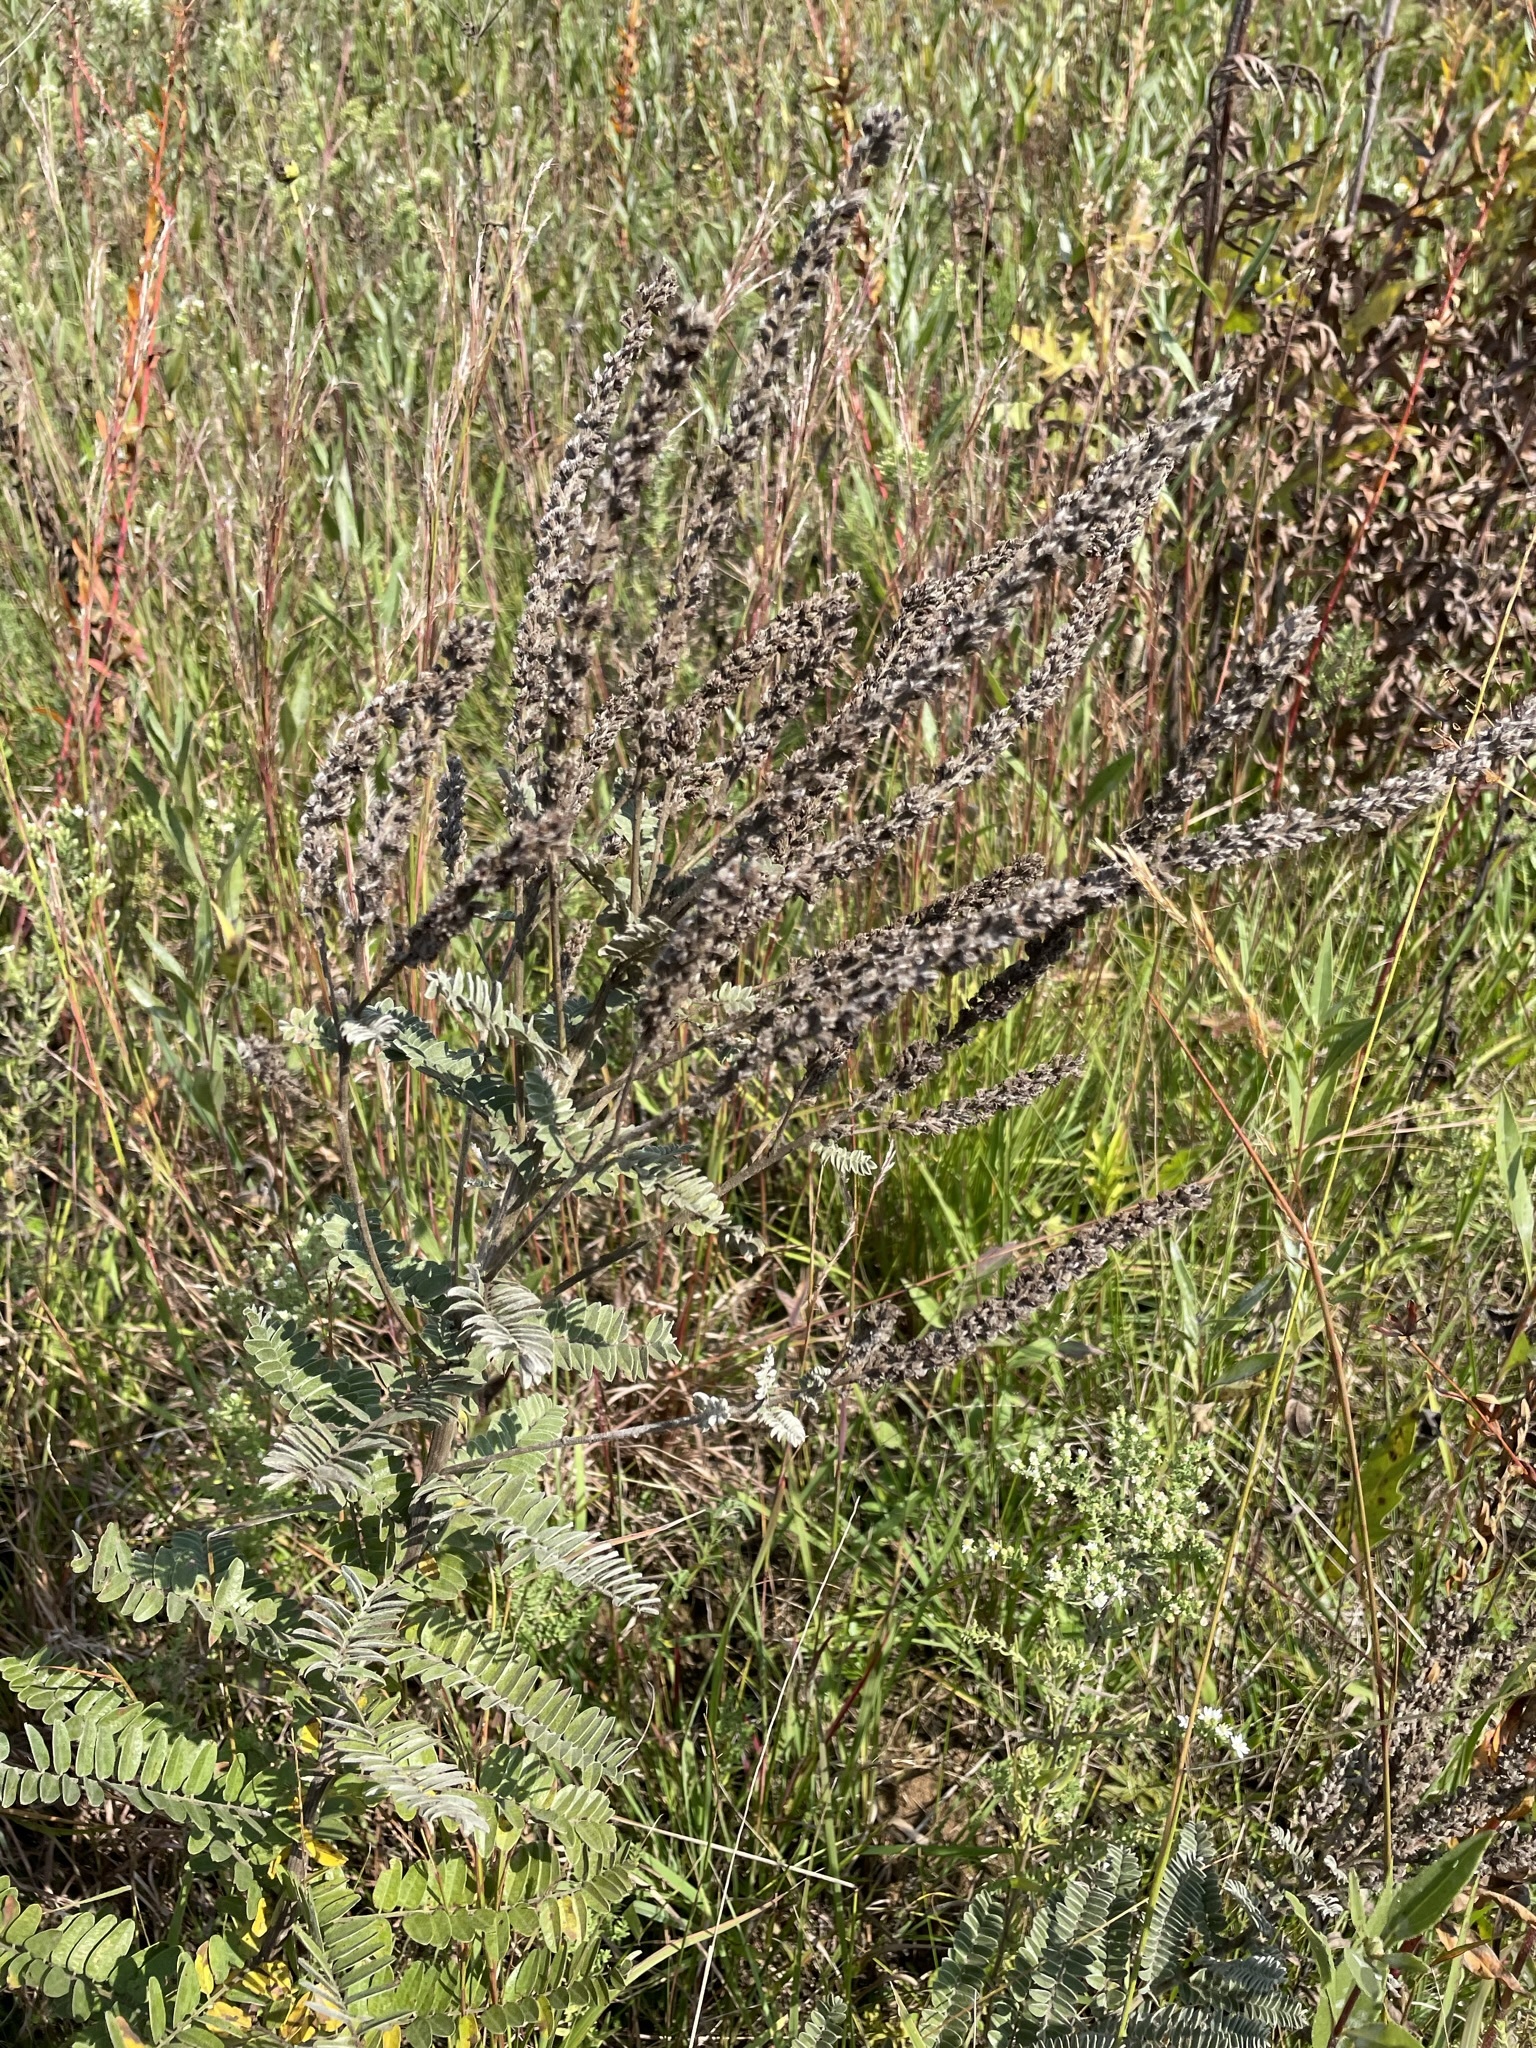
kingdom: Plantae
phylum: Tracheophyta
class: Magnoliopsida
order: Fabales
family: Fabaceae
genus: Amorpha
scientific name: Amorpha canescens
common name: Leadplant
